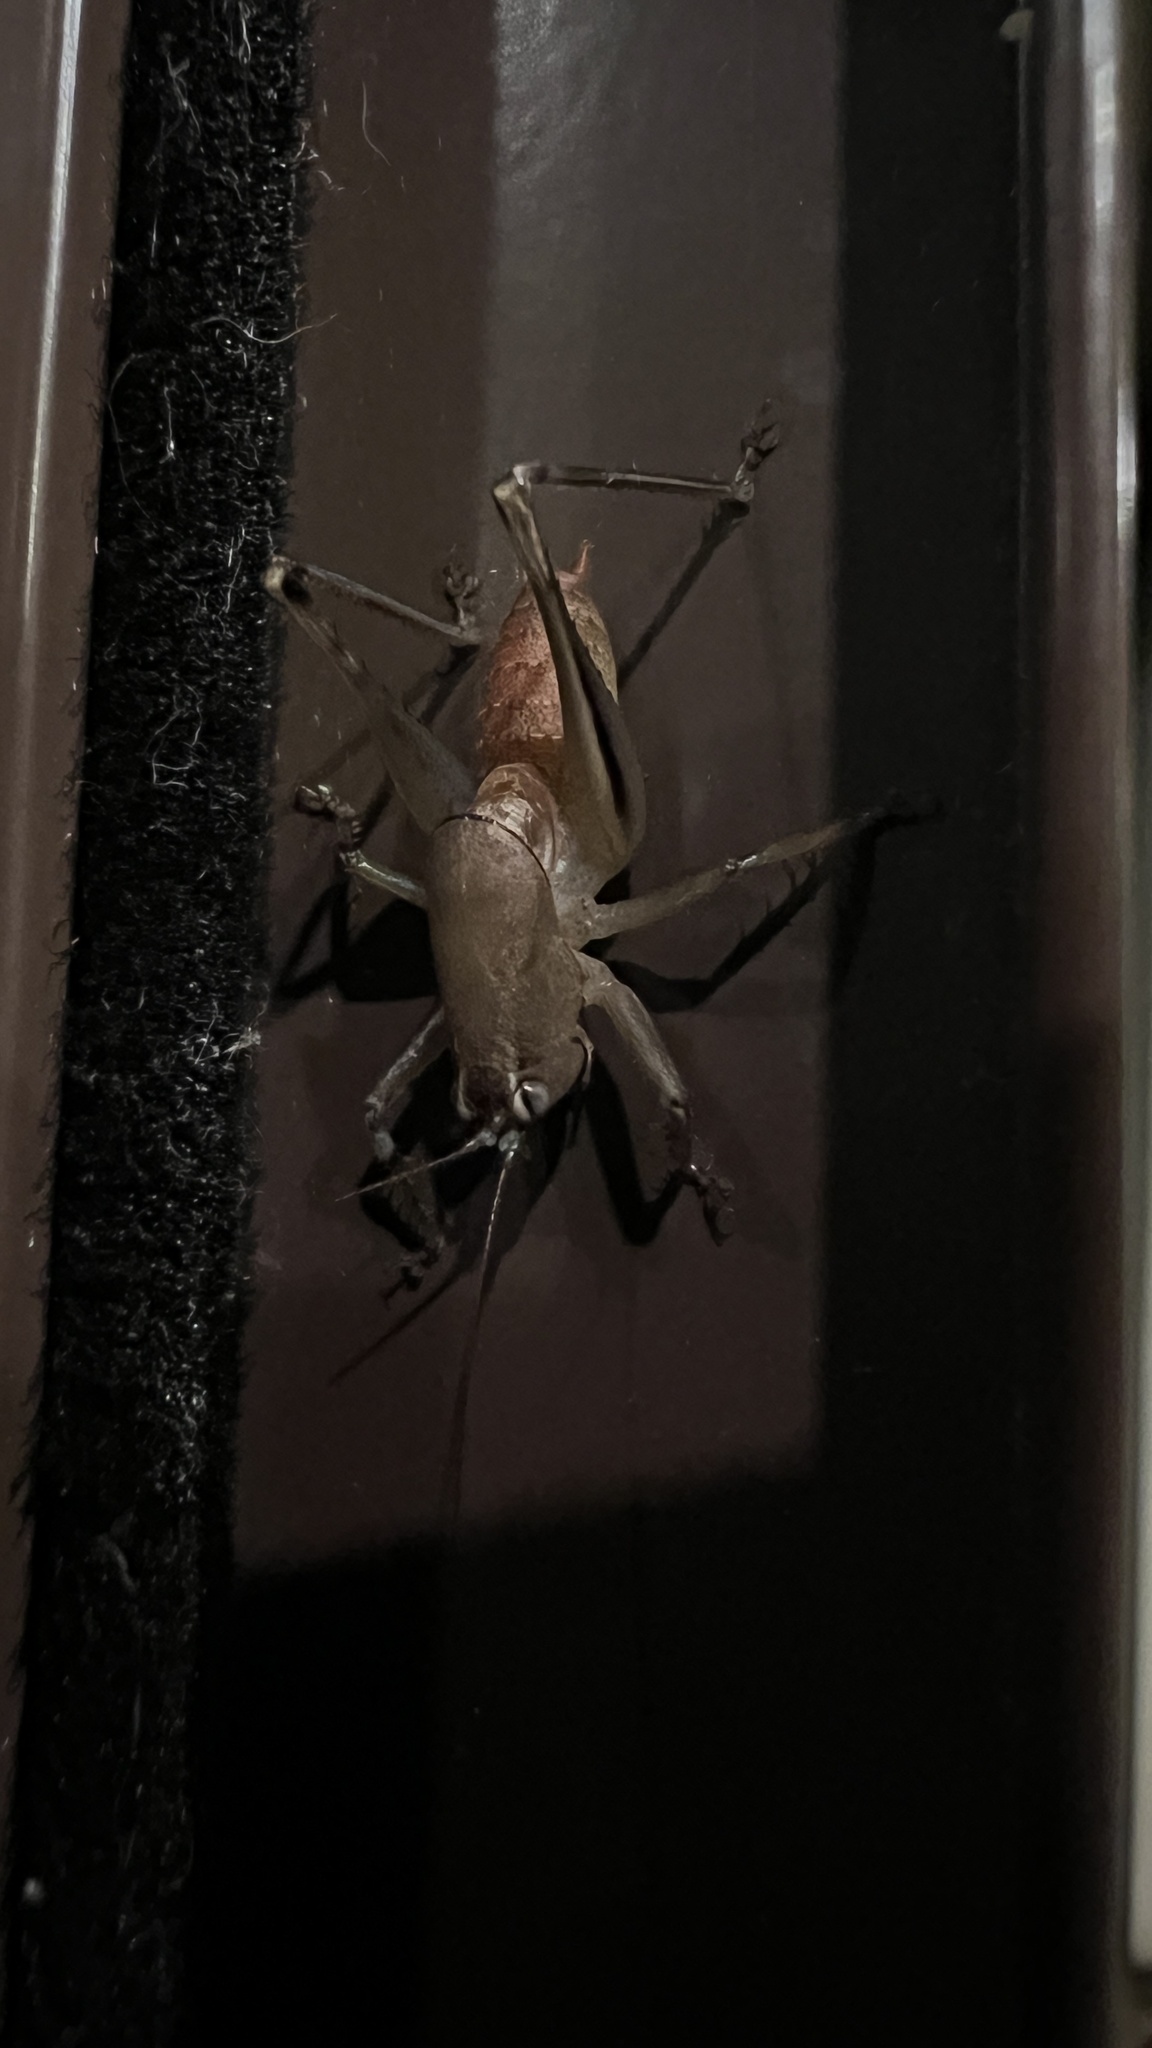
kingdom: Animalia
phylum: Arthropoda
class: Insecta
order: Orthoptera
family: Tettigoniidae
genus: Requena
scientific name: Requena verticalis
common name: Common western requena
